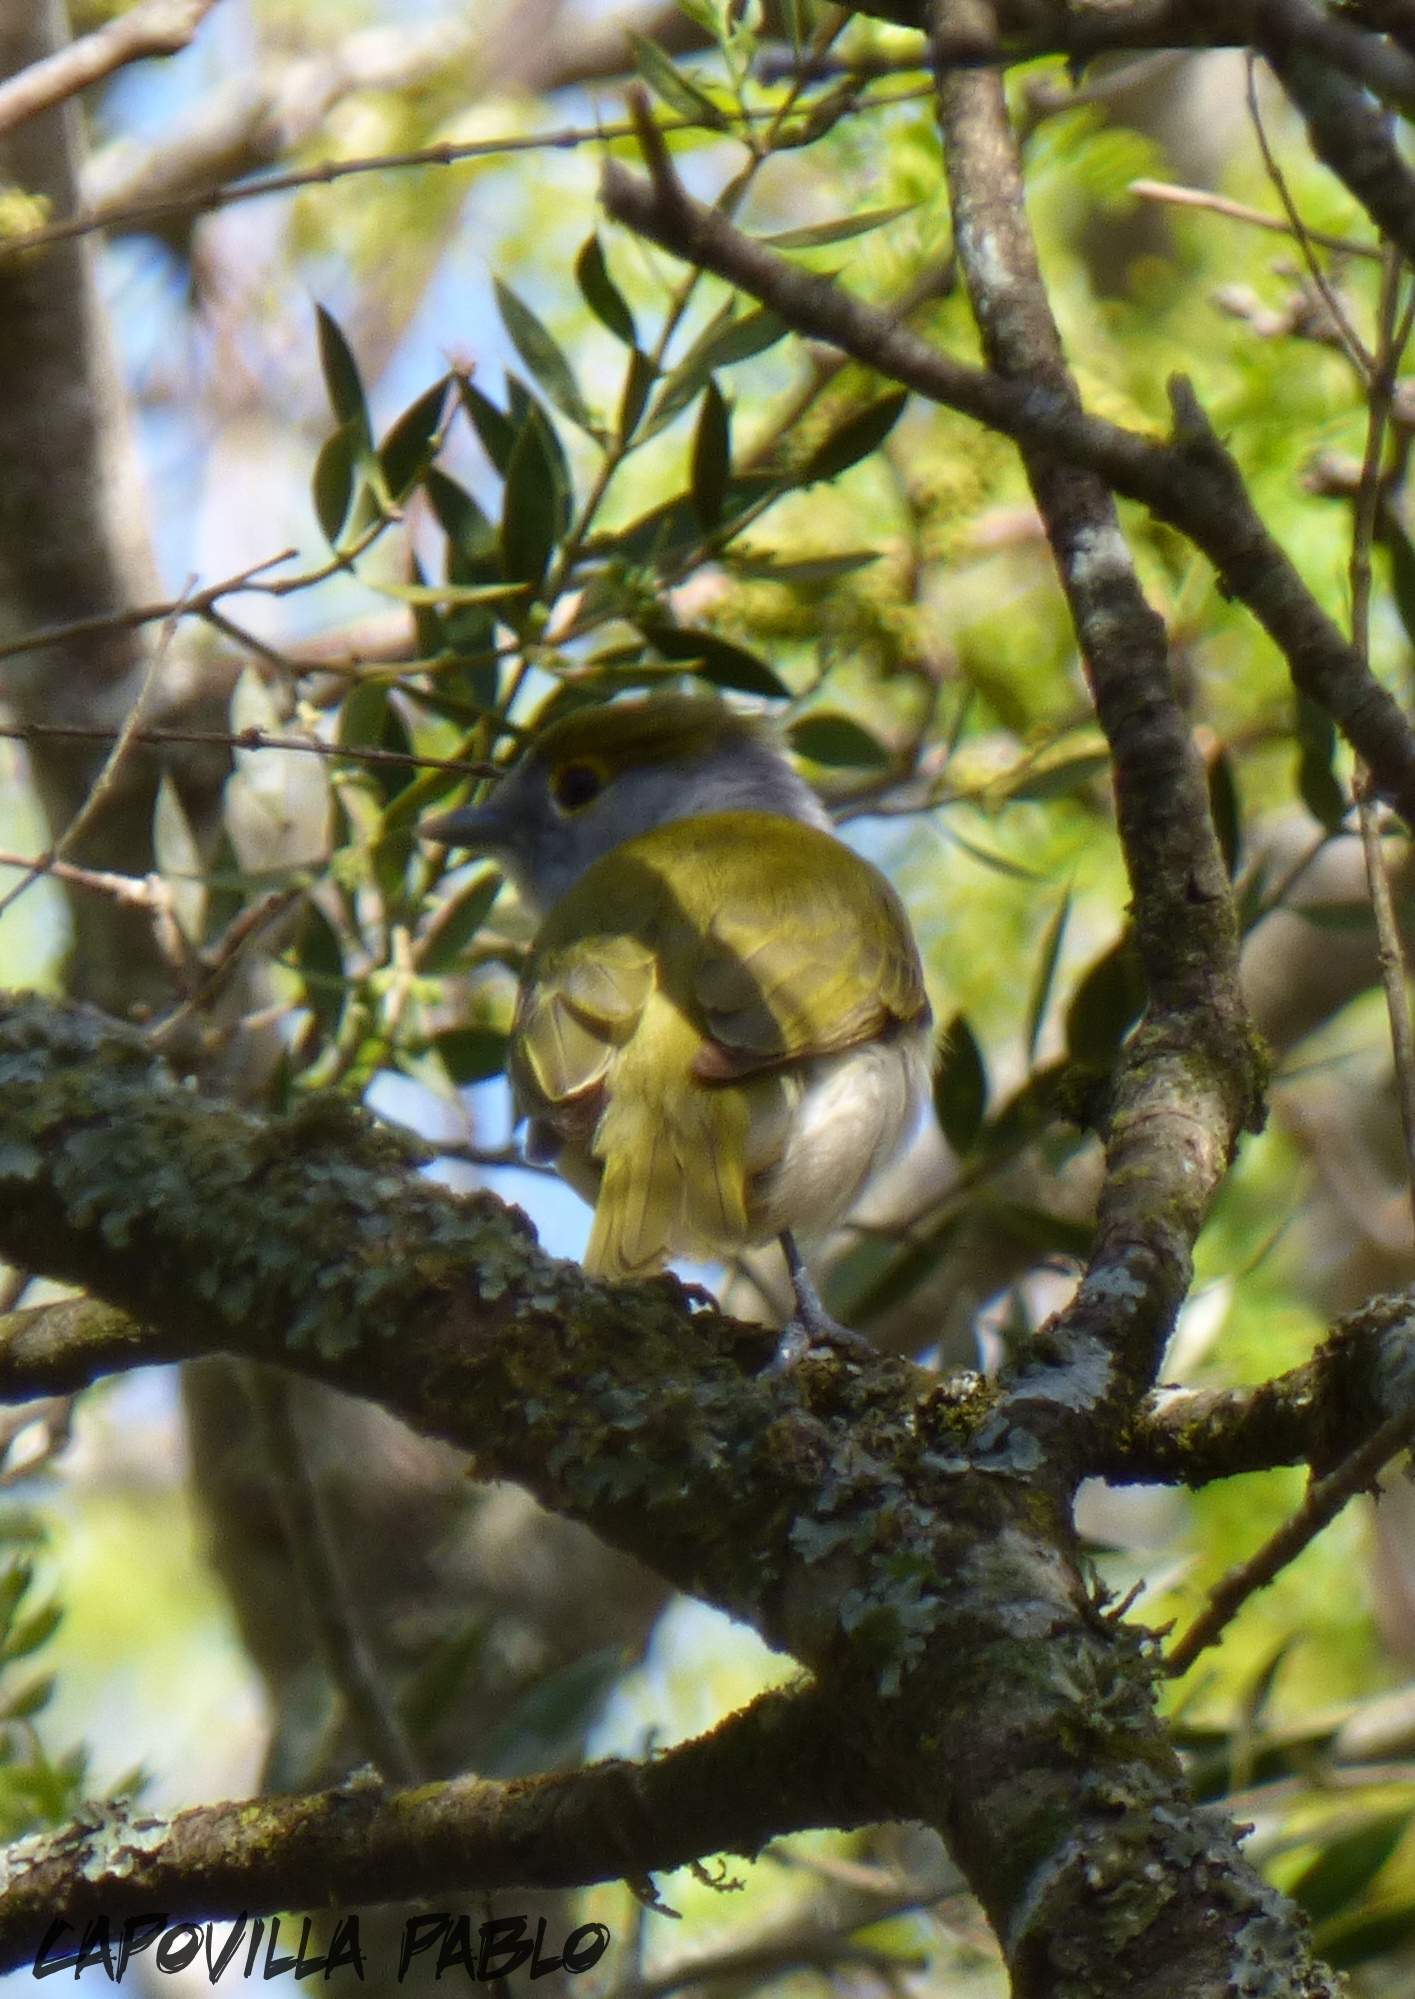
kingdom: Animalia
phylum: Chordata
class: Aves
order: Passeriformes
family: Cotingidae
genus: Pachyramphus
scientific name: Pachyramphus viridis
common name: Green-backed becard
